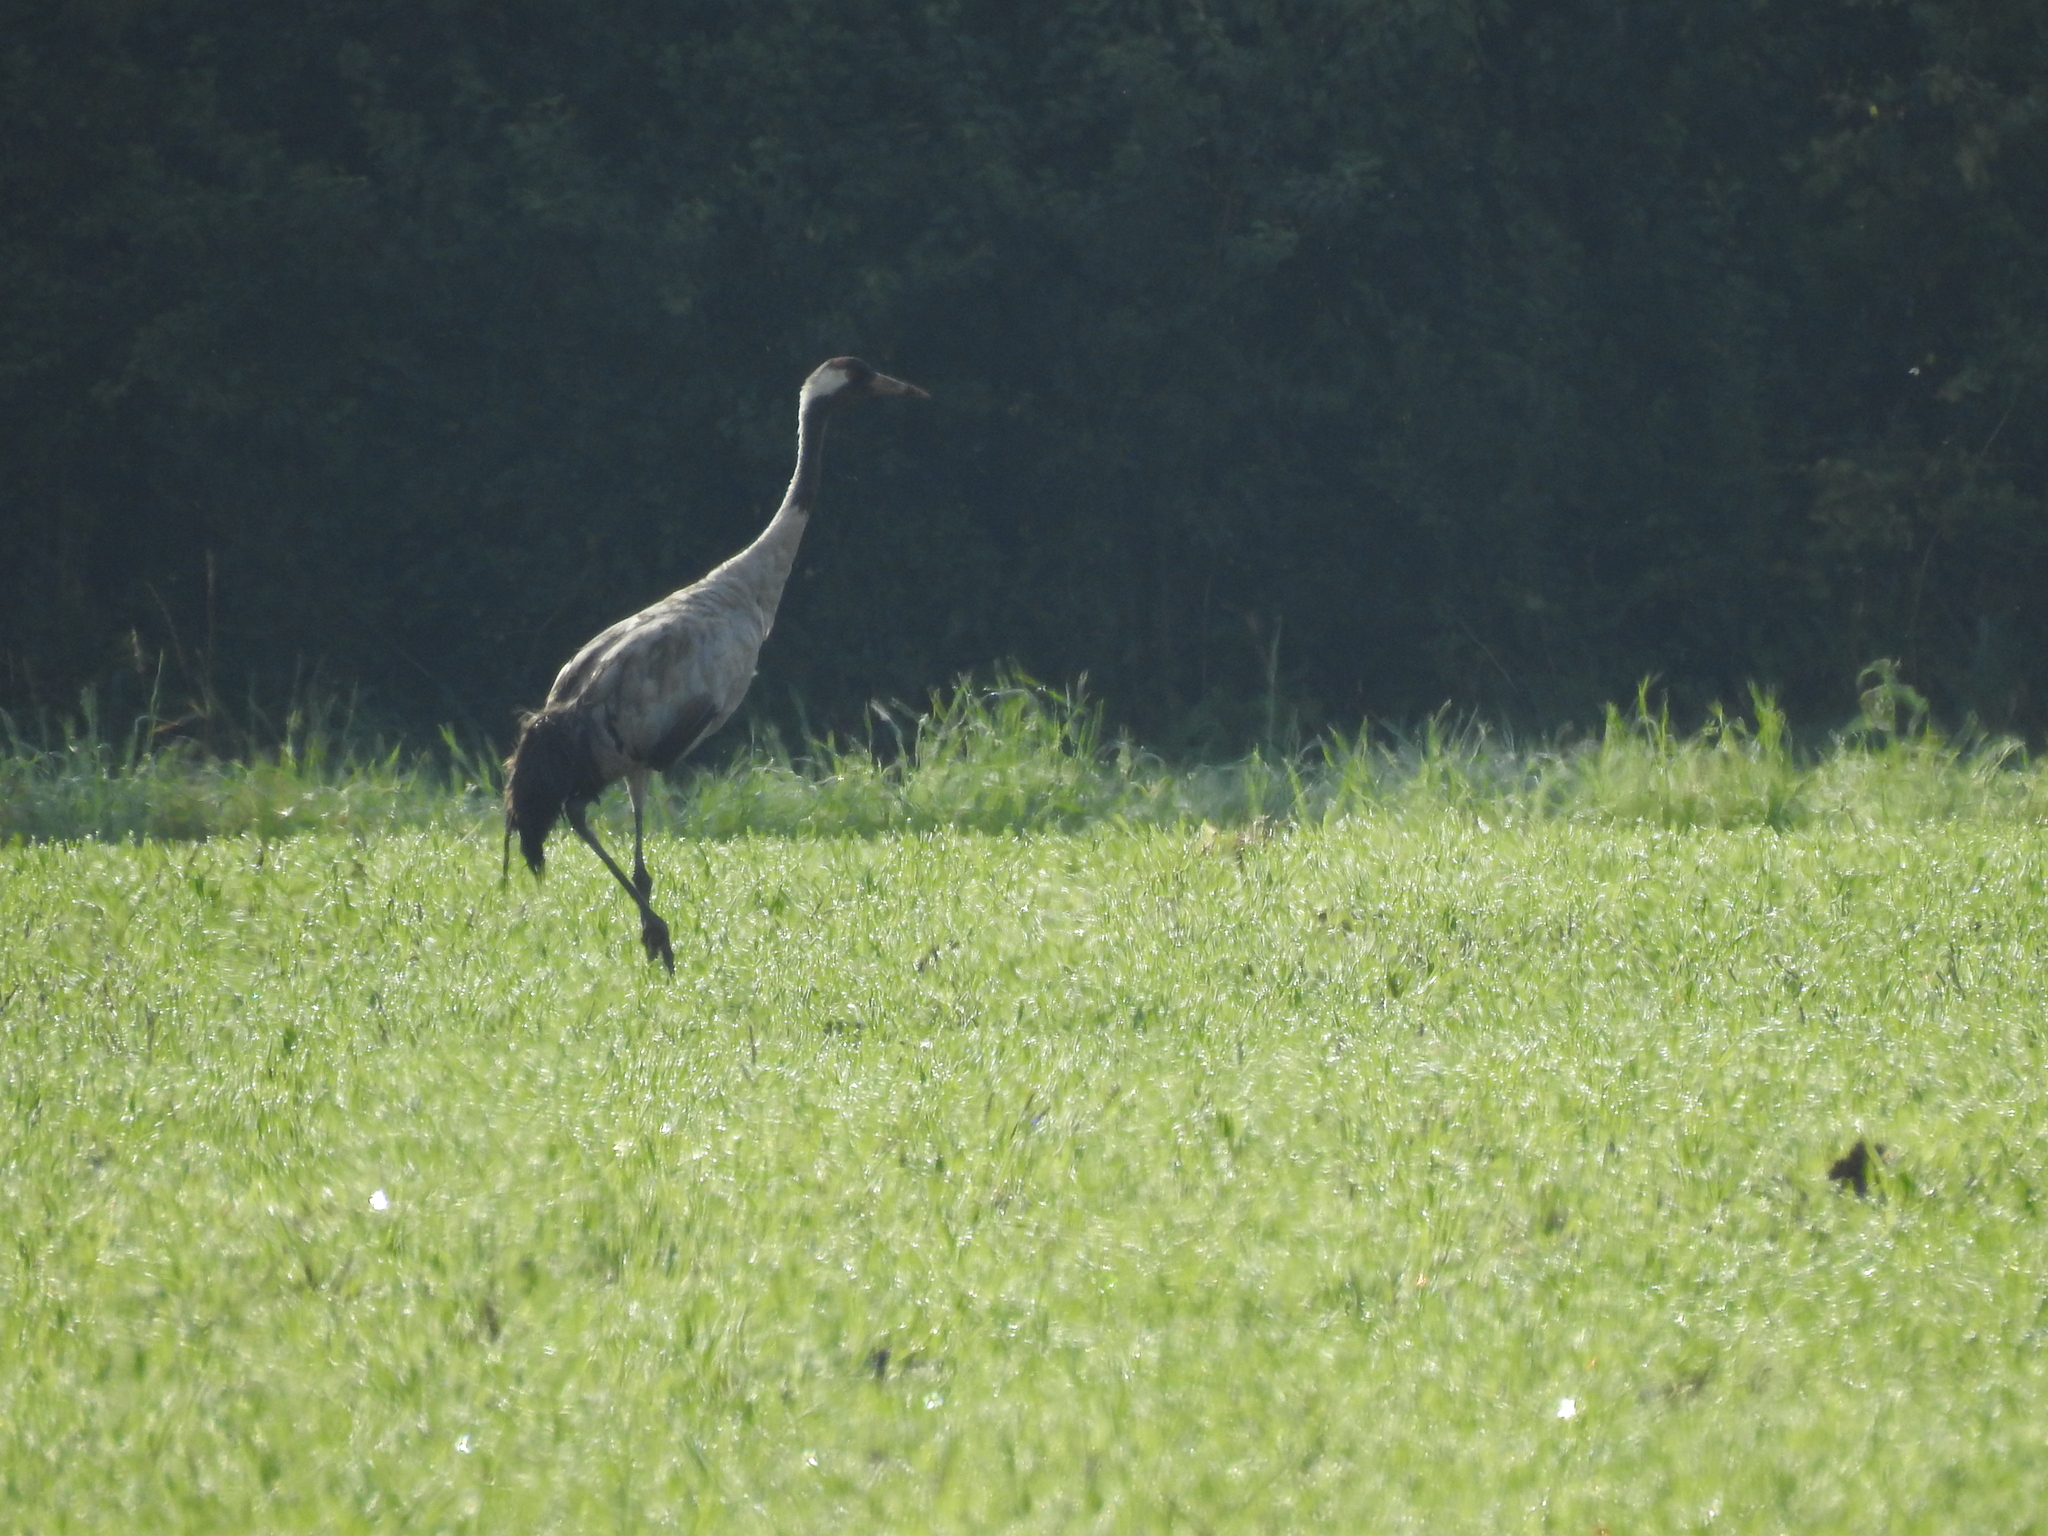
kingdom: Animalia
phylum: Chordata
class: Aves
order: Gruiformes
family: Gruidae
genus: Grus
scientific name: Grus grus
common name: Common crane
